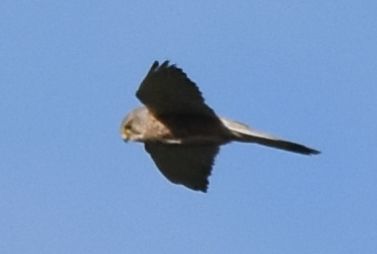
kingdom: Animalia
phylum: Chordata
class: Aves
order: Falconiformes
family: Falconidae
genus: Falco
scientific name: Falco tinnunculus
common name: Common kestrel
